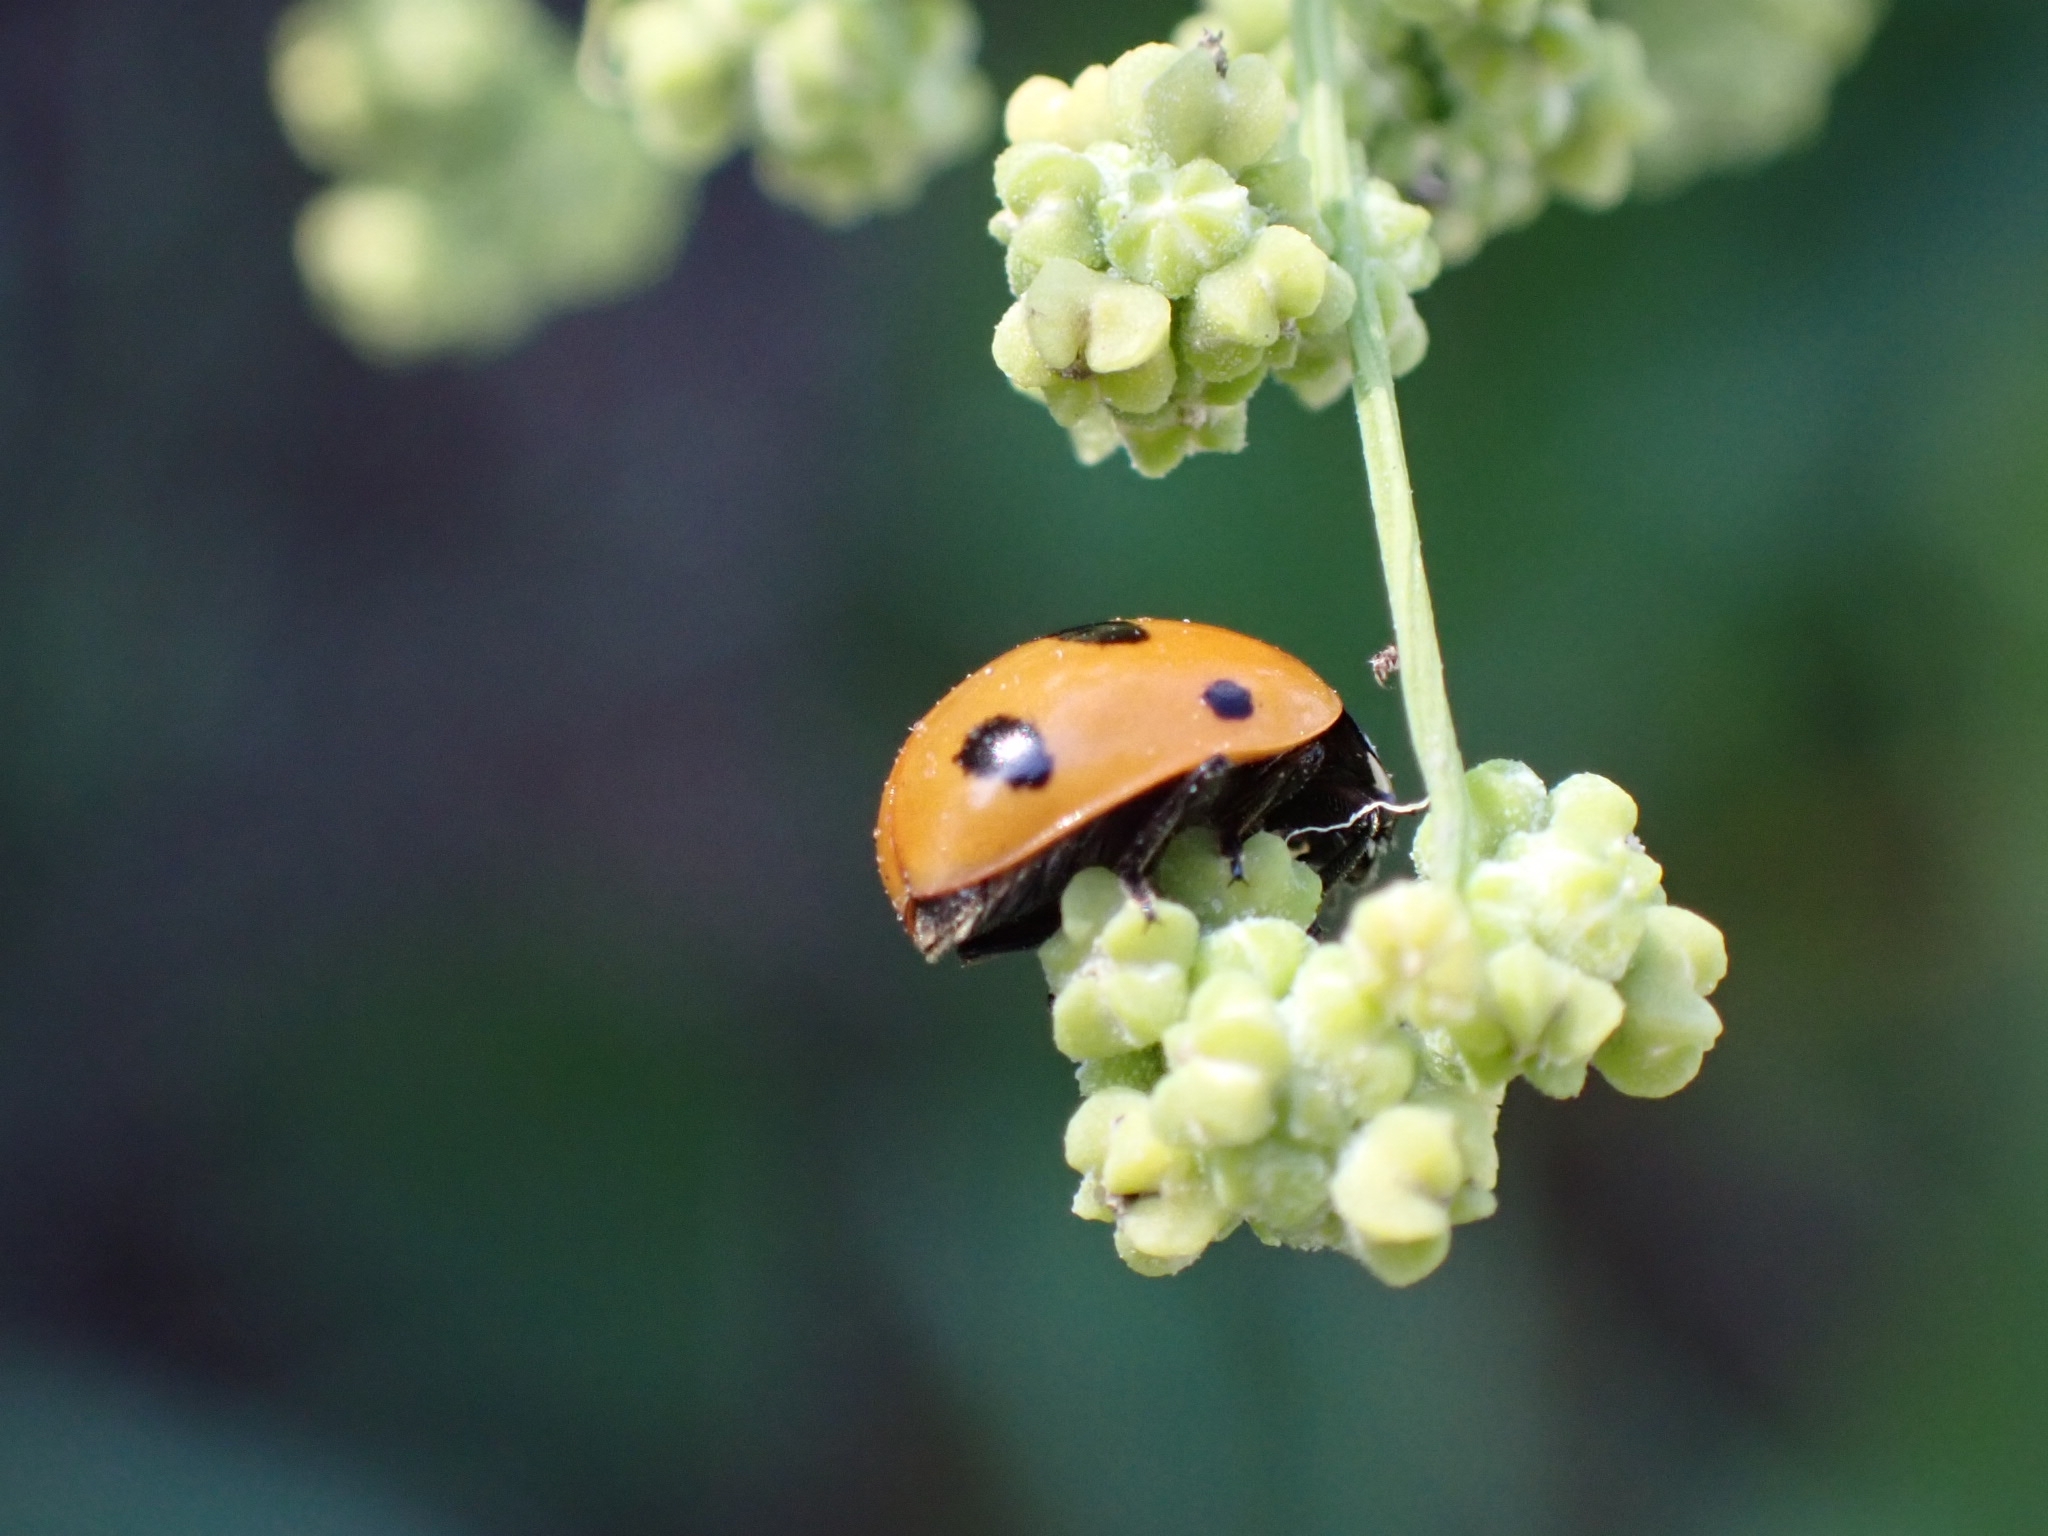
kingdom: Animalia
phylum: Arthropoda
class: Insecta
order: Coleoptera
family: Coccinellidae
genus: Coccinella
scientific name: Coccinella septempunctata
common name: Sevenspotted lady beetle
